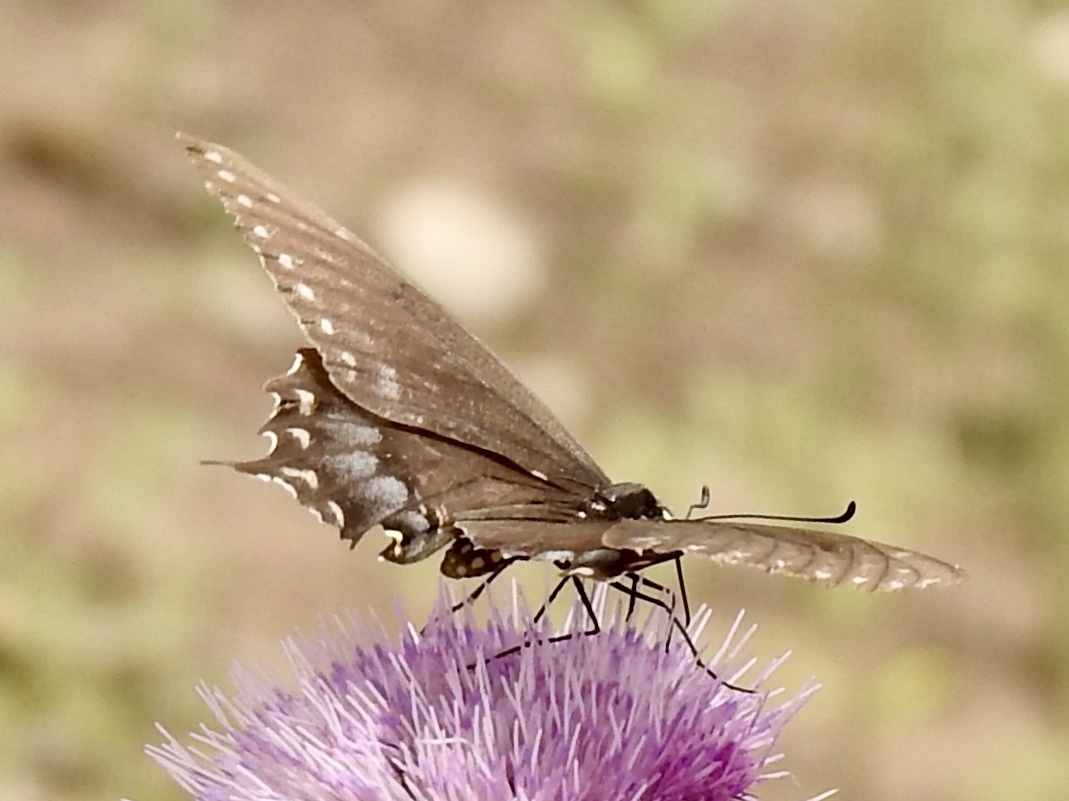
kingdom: Animalia
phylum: Arthropoda
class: Insecta
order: Lepidoptera
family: Papilionidae
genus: Papilio
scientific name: Papilio polyxenes
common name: Black swallowtail
